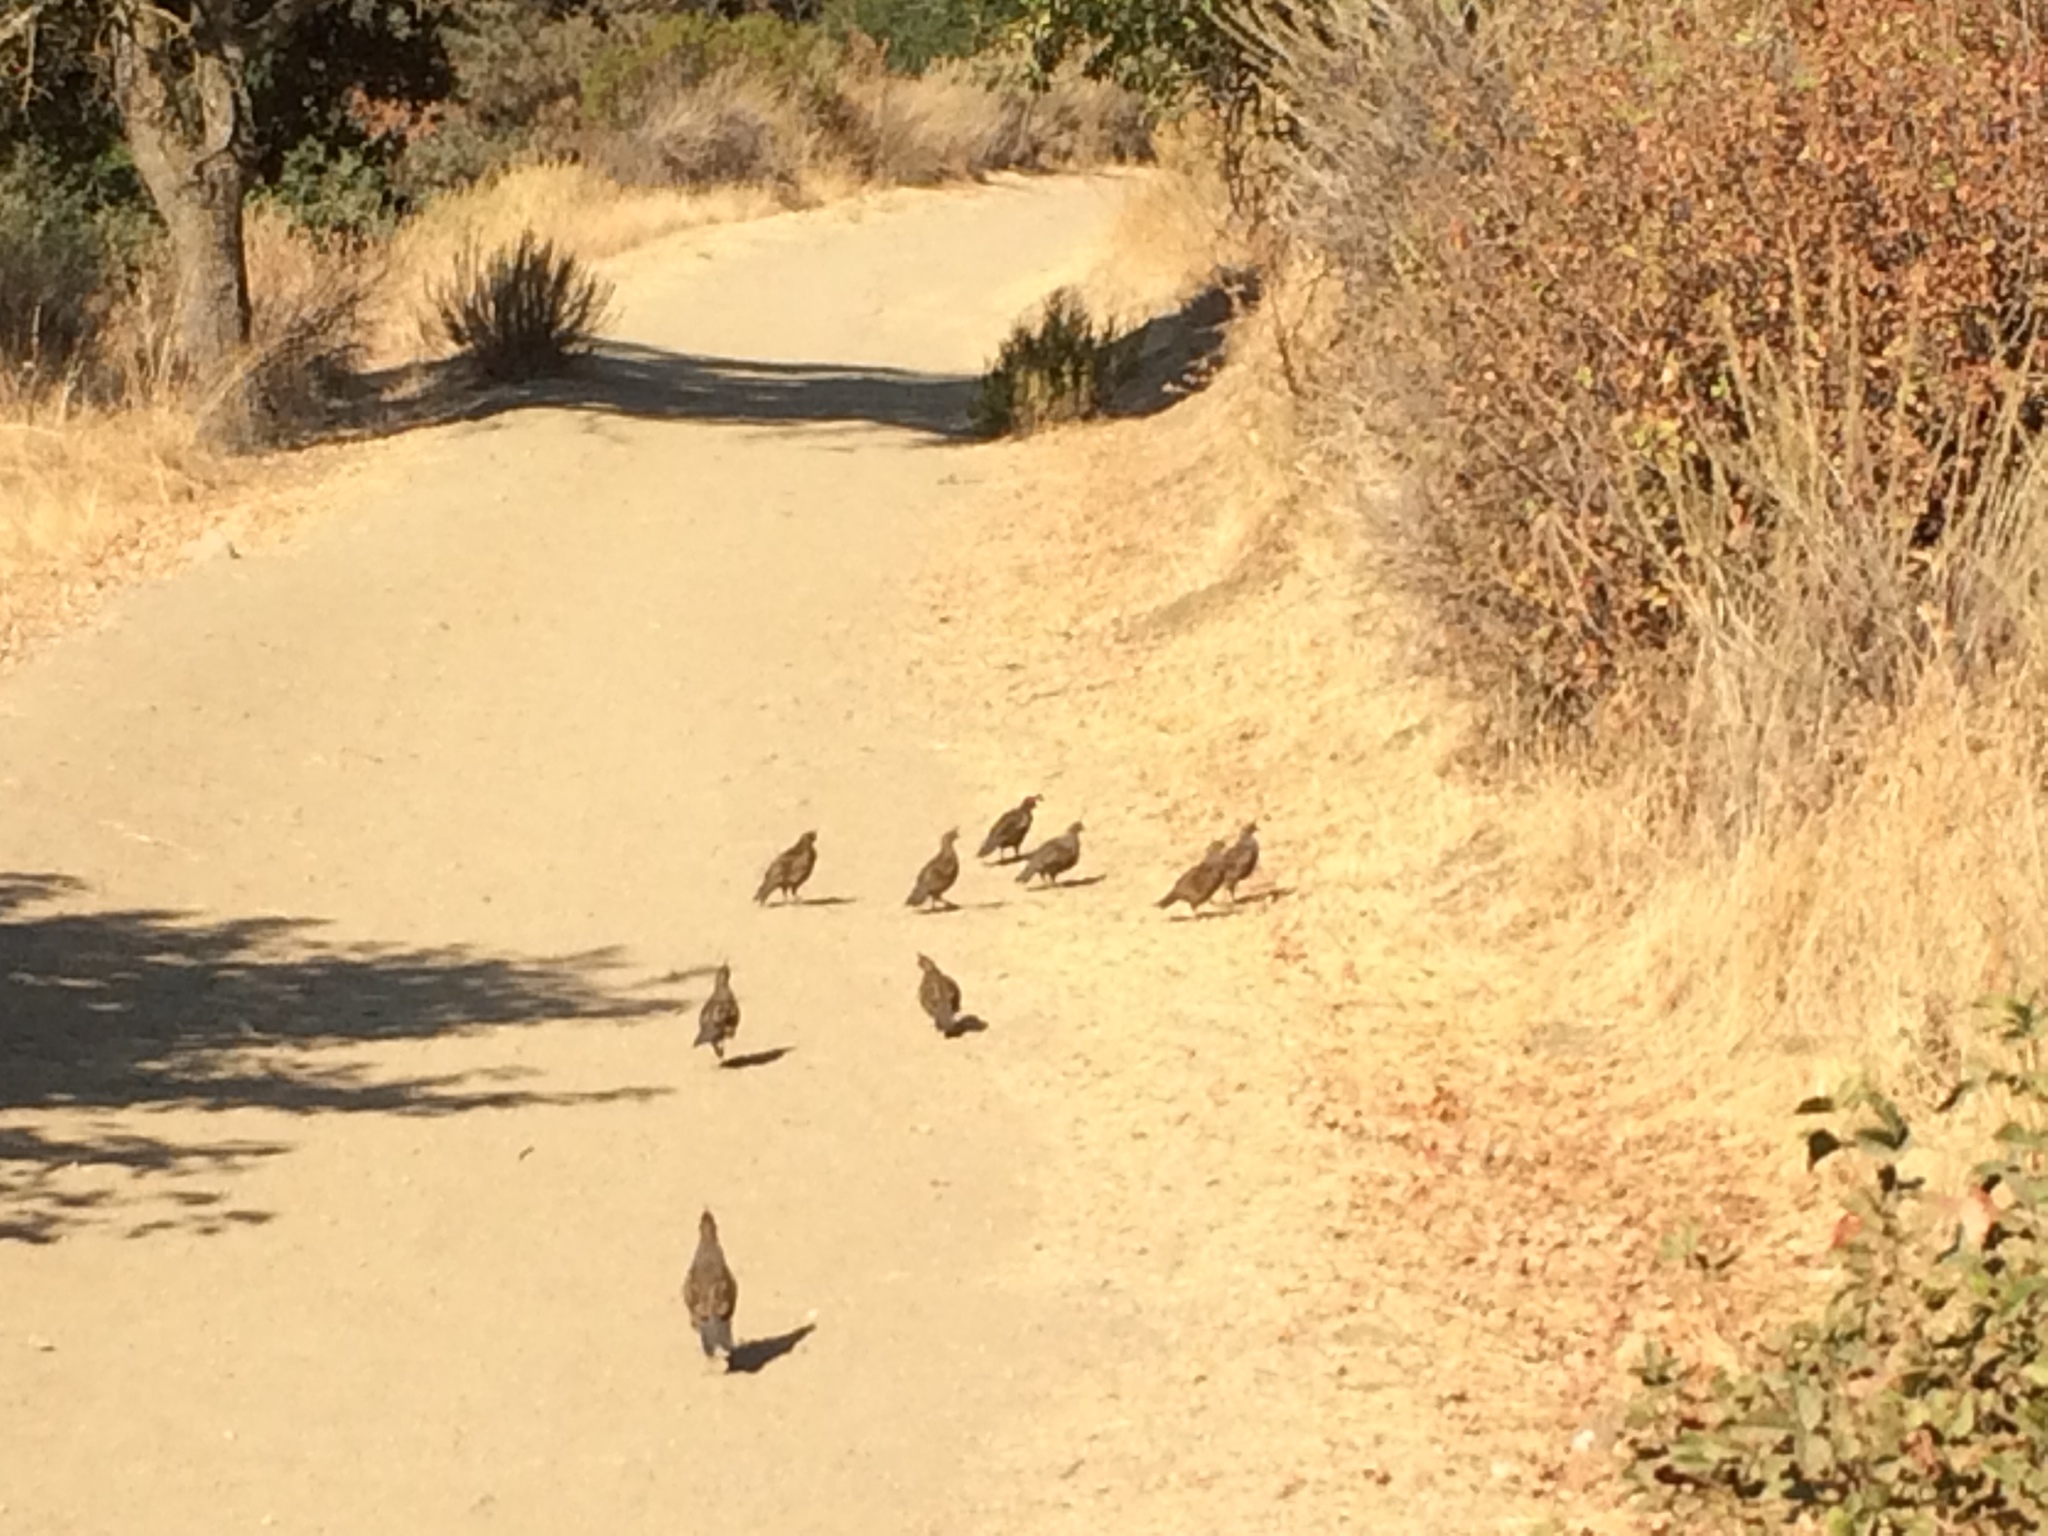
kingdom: Animalia
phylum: Chordata
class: Aves
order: Galliformes
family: Odontophoridae
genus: Callipepla
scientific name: Callipepla californica
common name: California quail
